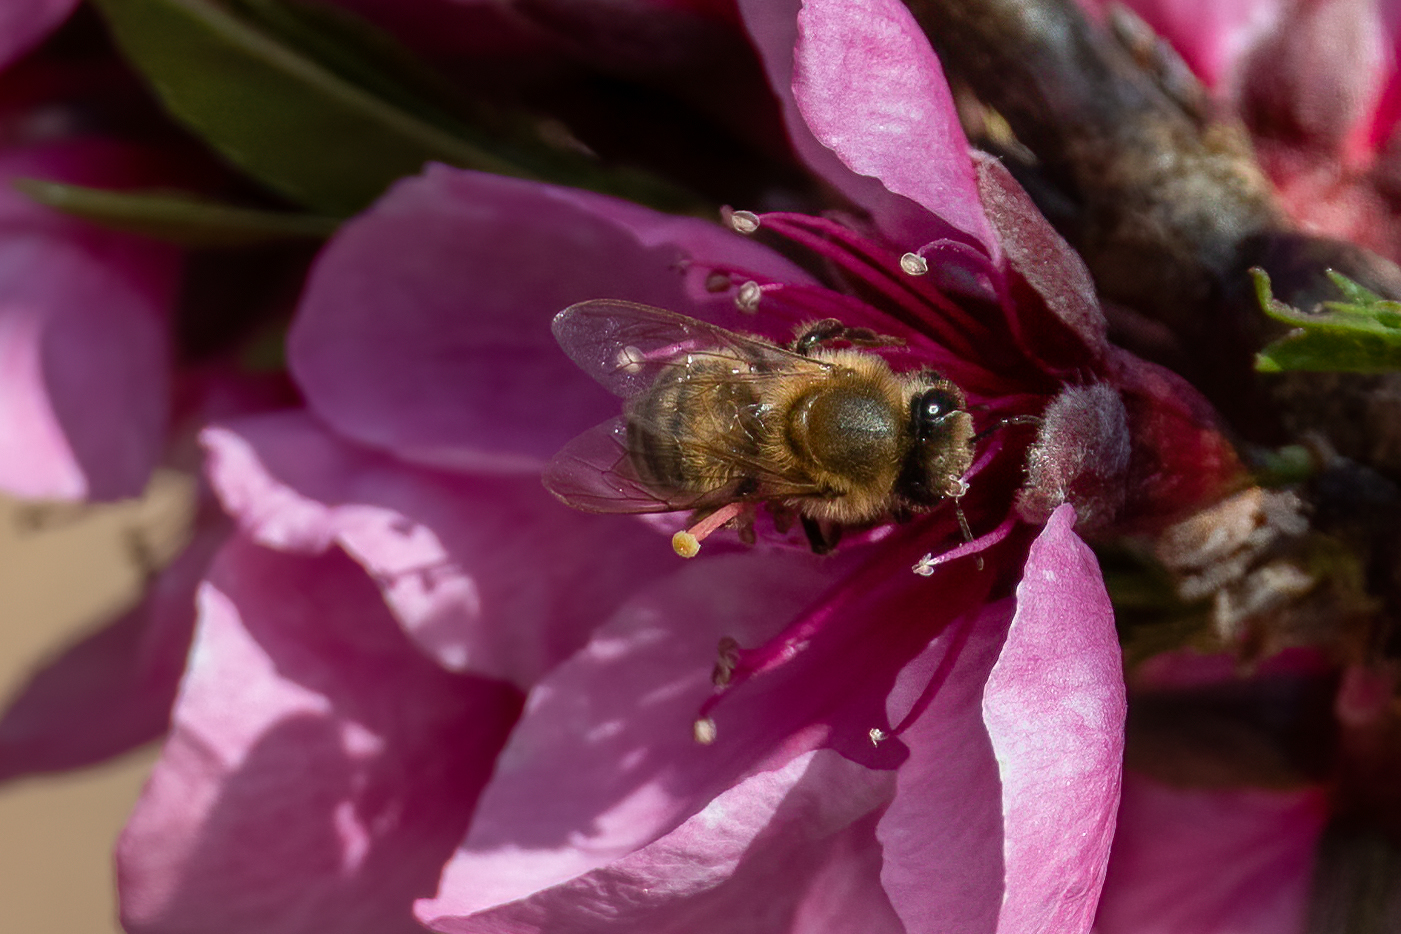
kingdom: Animalia
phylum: Arthropoda
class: Insecta
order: Hymenoptera
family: Apidae
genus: Apis
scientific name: Apis mellifera
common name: Honey bee
